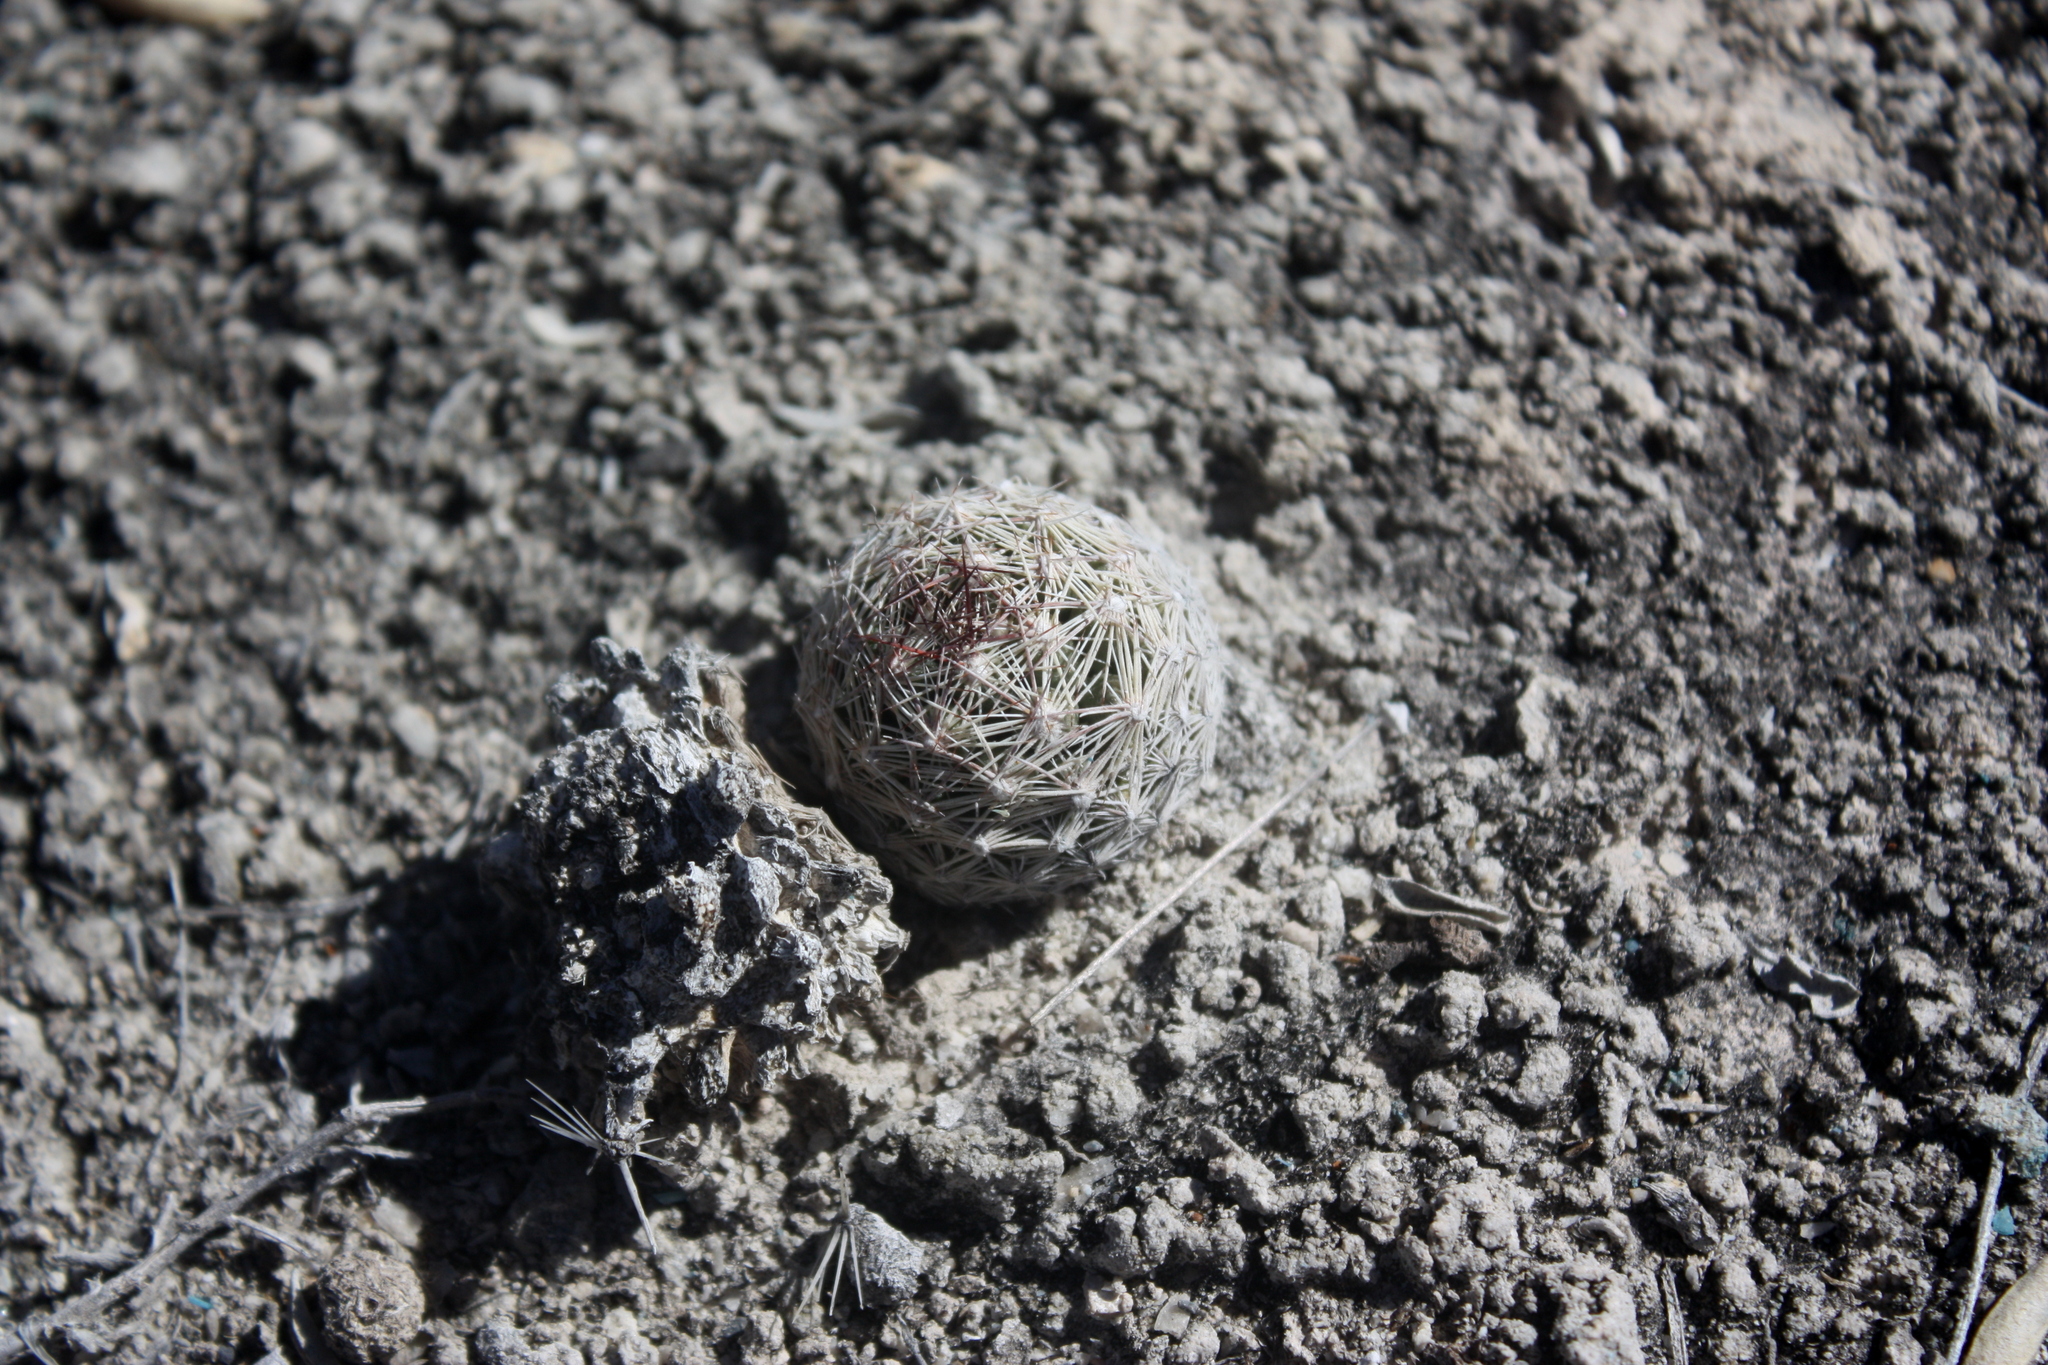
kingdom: Plantae
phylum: Tracheophyta
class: Magnoliopsida
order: Caryophyllales
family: Cactaceae
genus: Pelecyphora
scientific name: Pelecyphora vivipara
